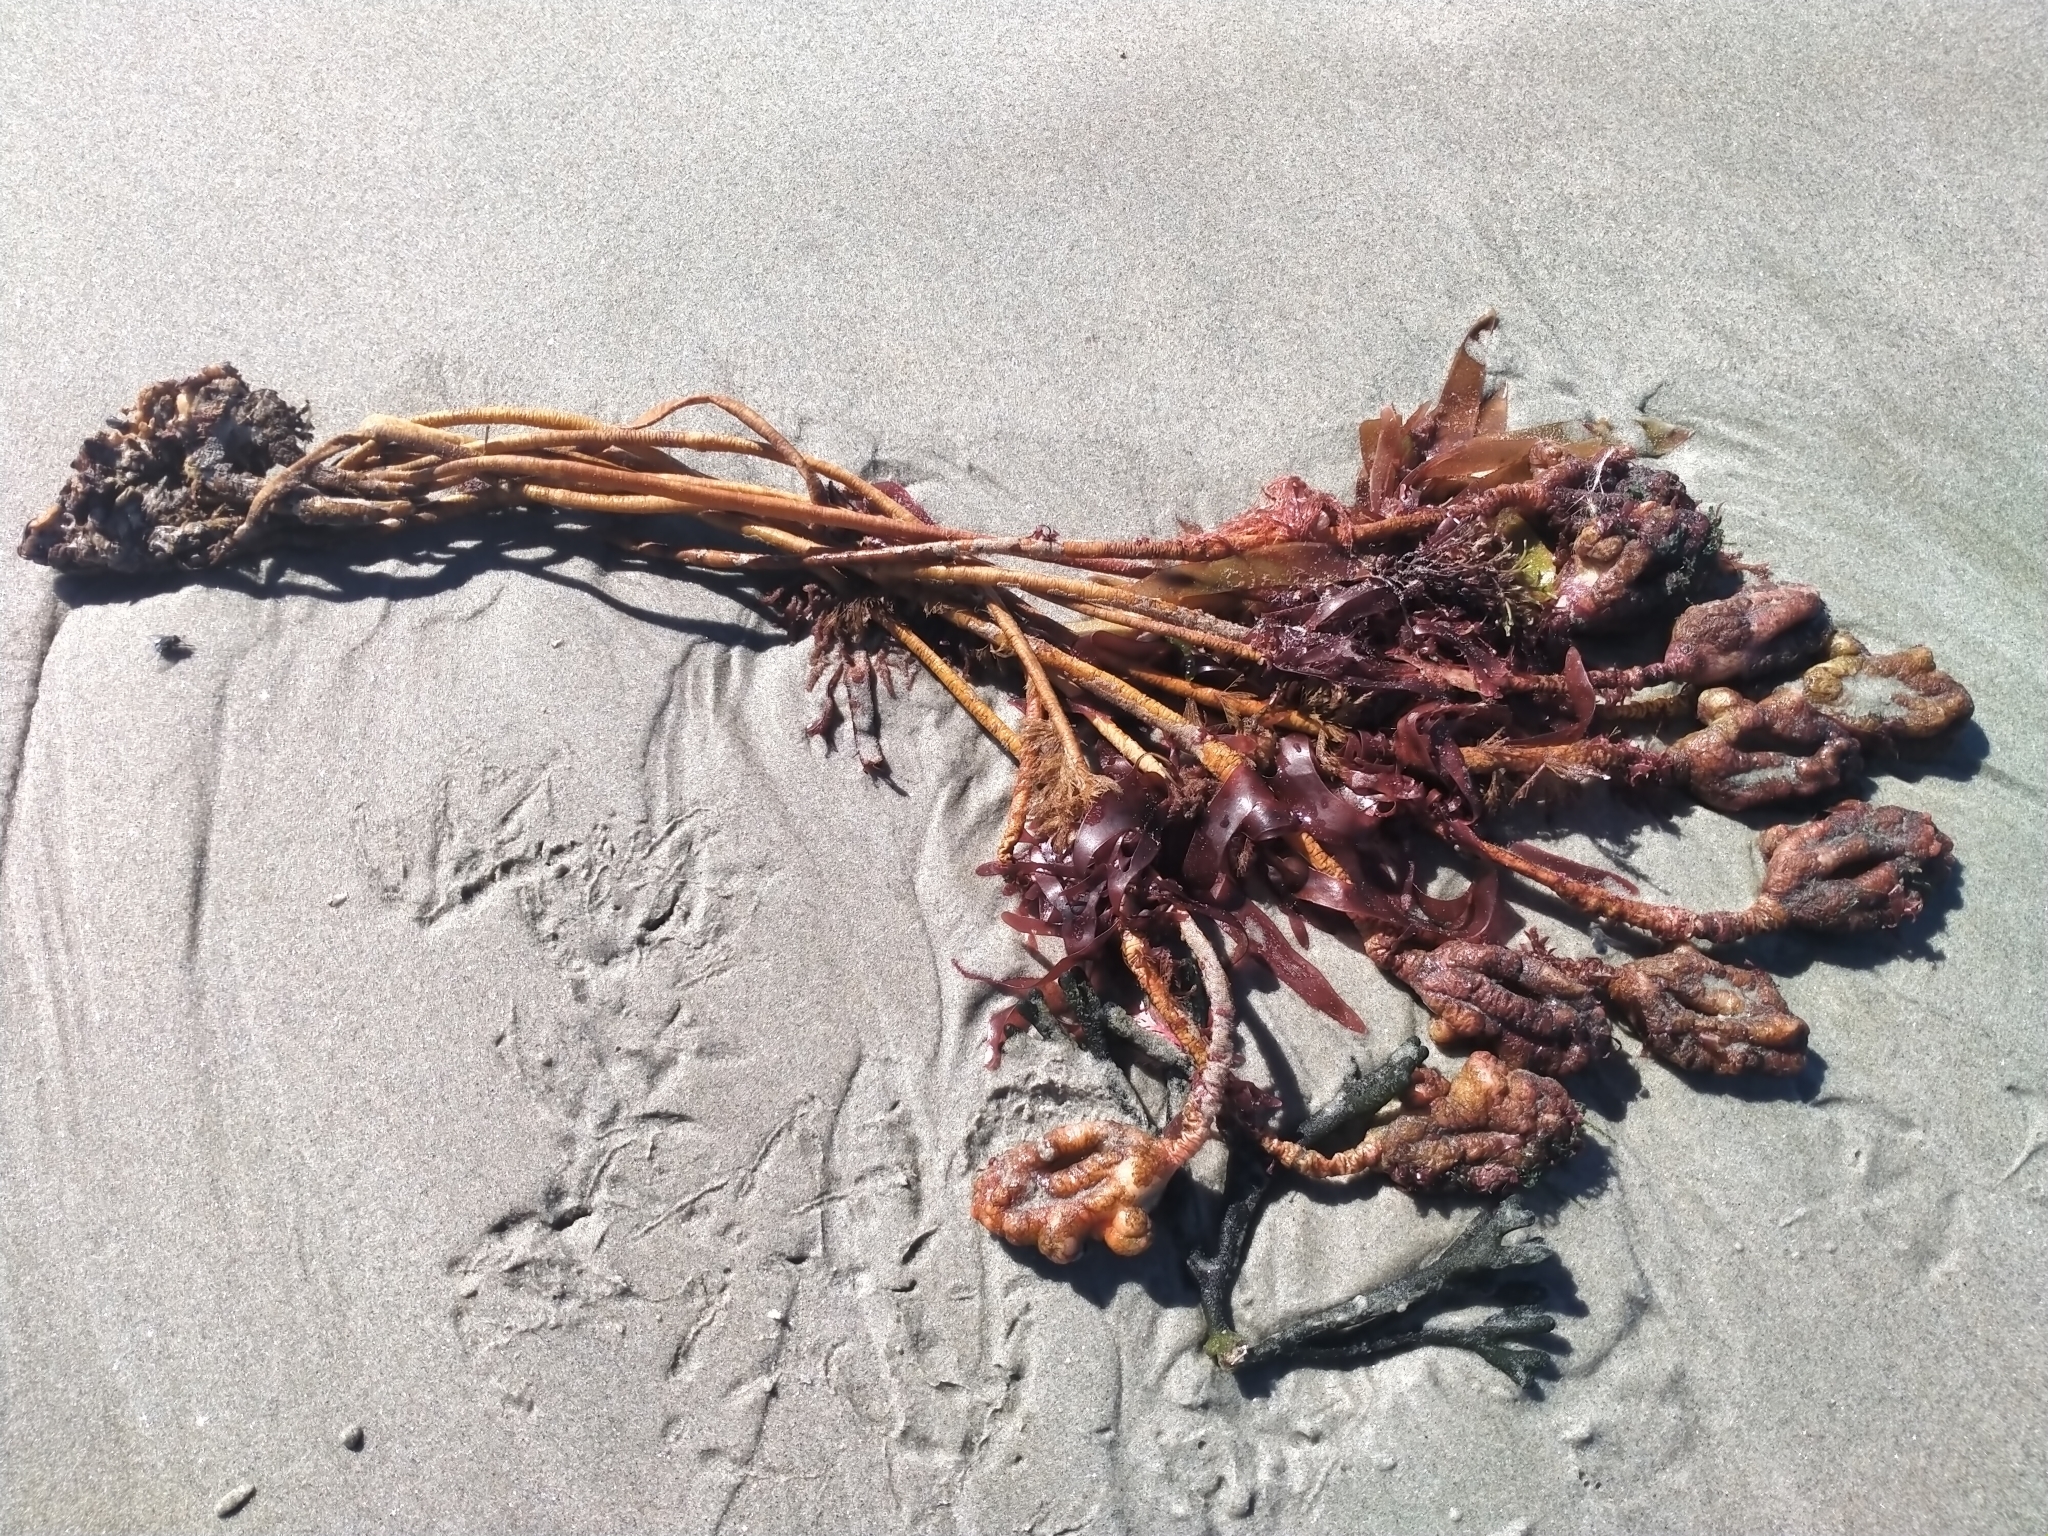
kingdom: Animalia
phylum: Chordata
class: Ascidiacea
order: Stolidobranchia
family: Pyuridae
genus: Pyura
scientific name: Pyura pachydermatina
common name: Sea tulip
